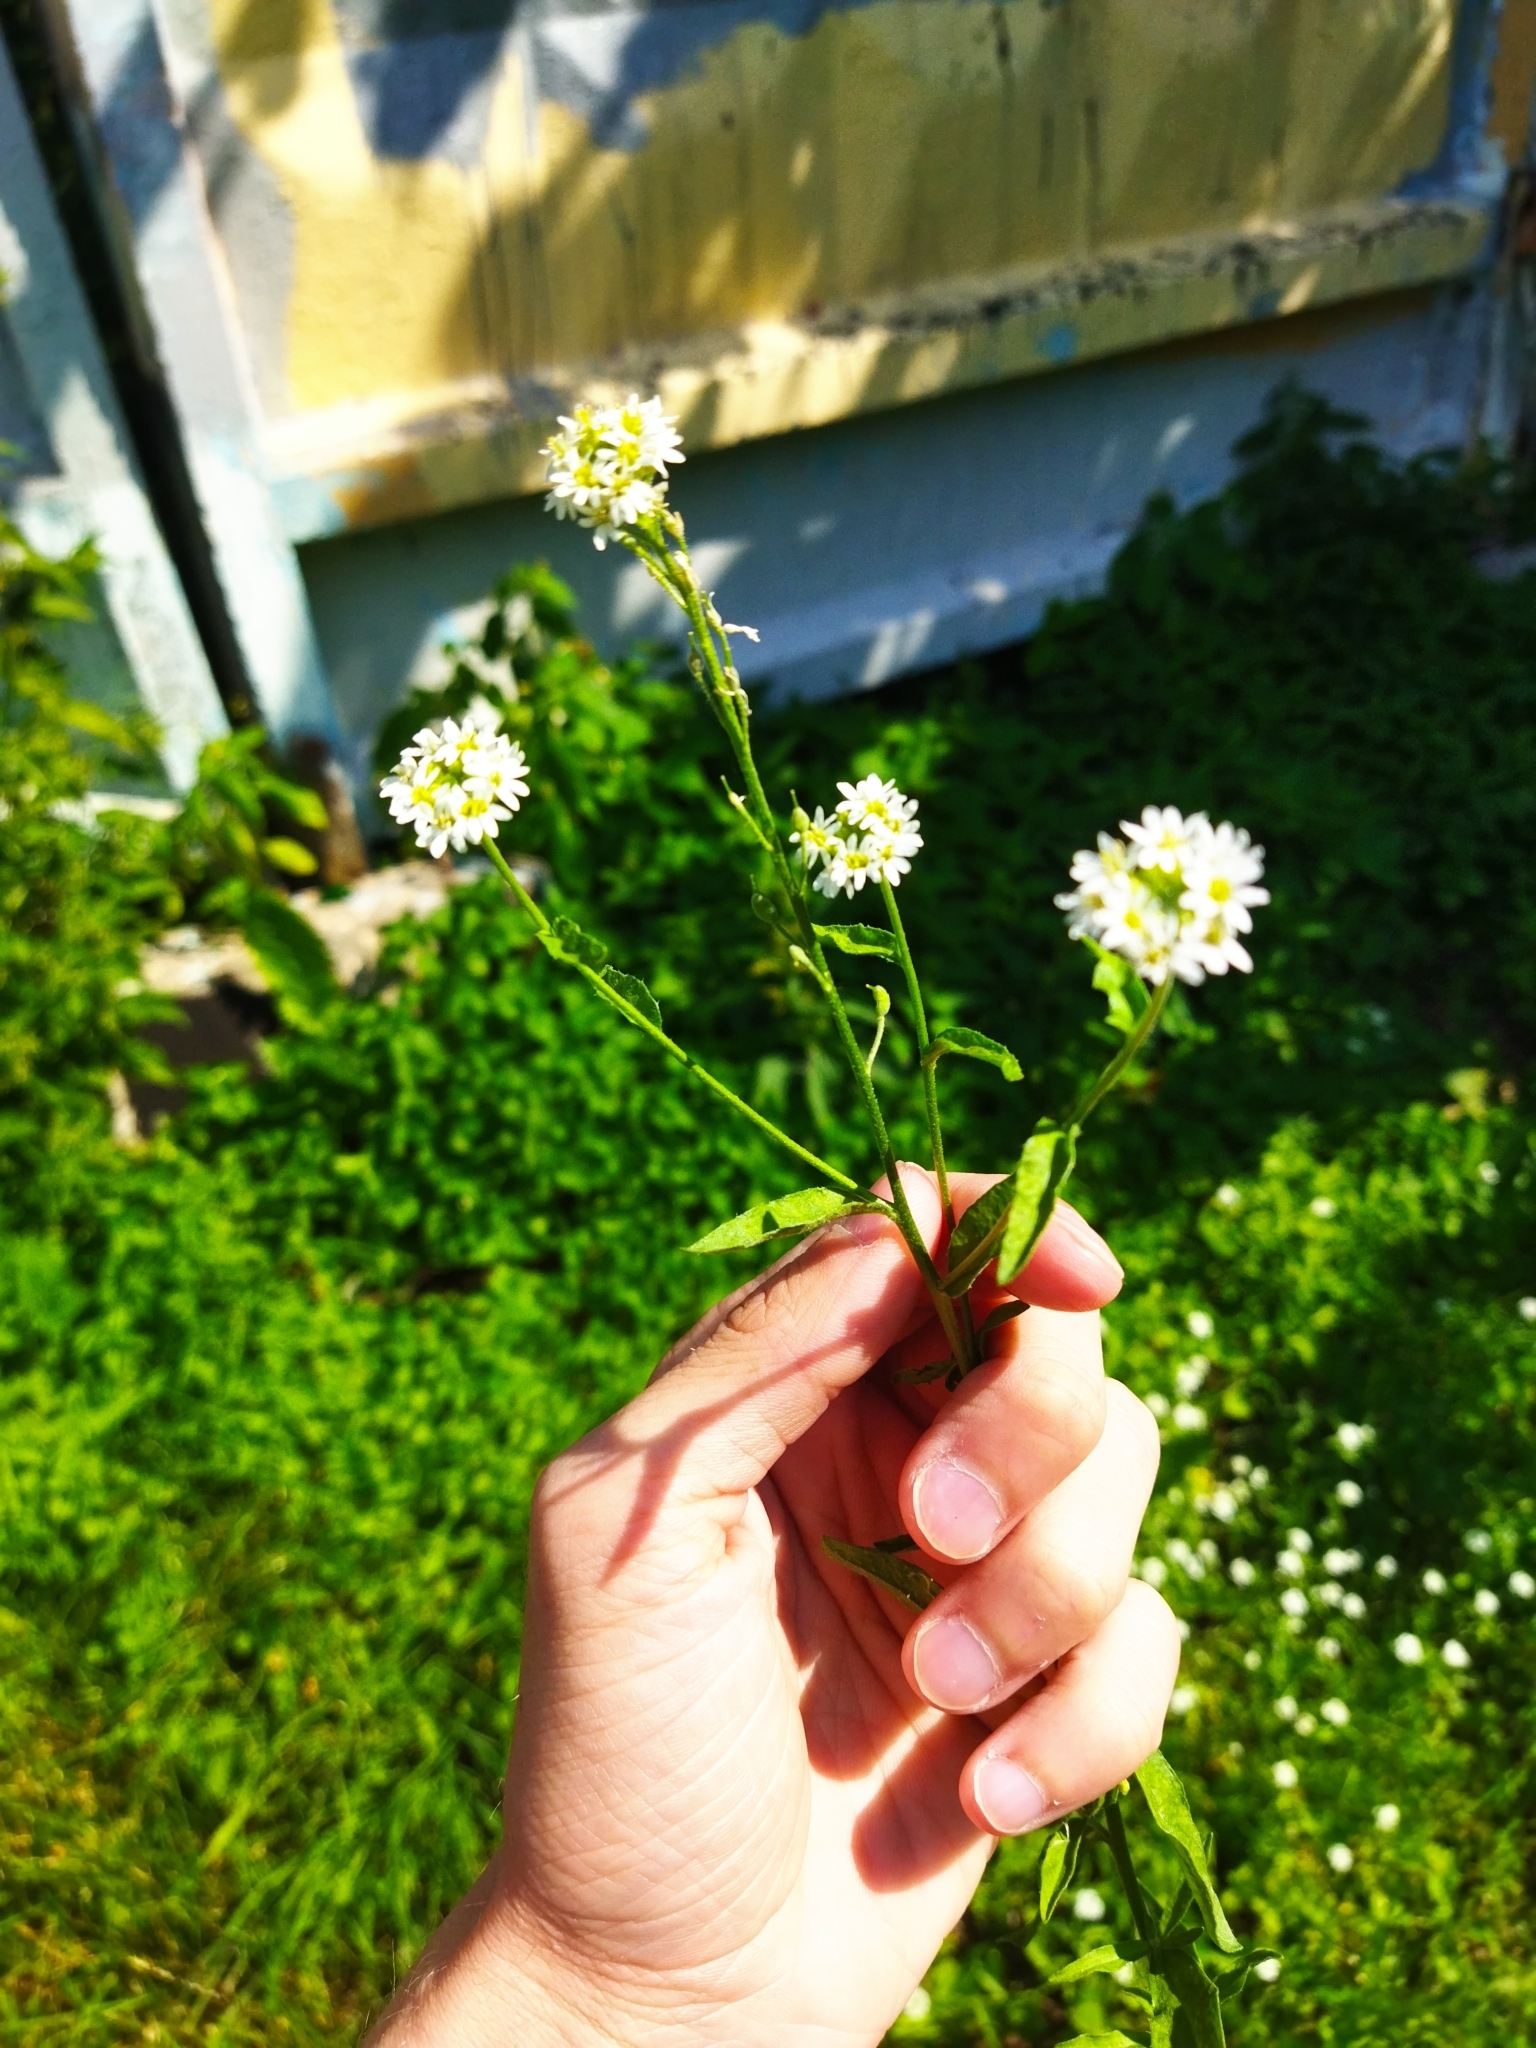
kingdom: Plantae
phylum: Tracheophyta
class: Magnoliopsida
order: Brassicales
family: Brassicaceae
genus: Berteroa
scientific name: Berteroa incana
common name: Hoary alison
